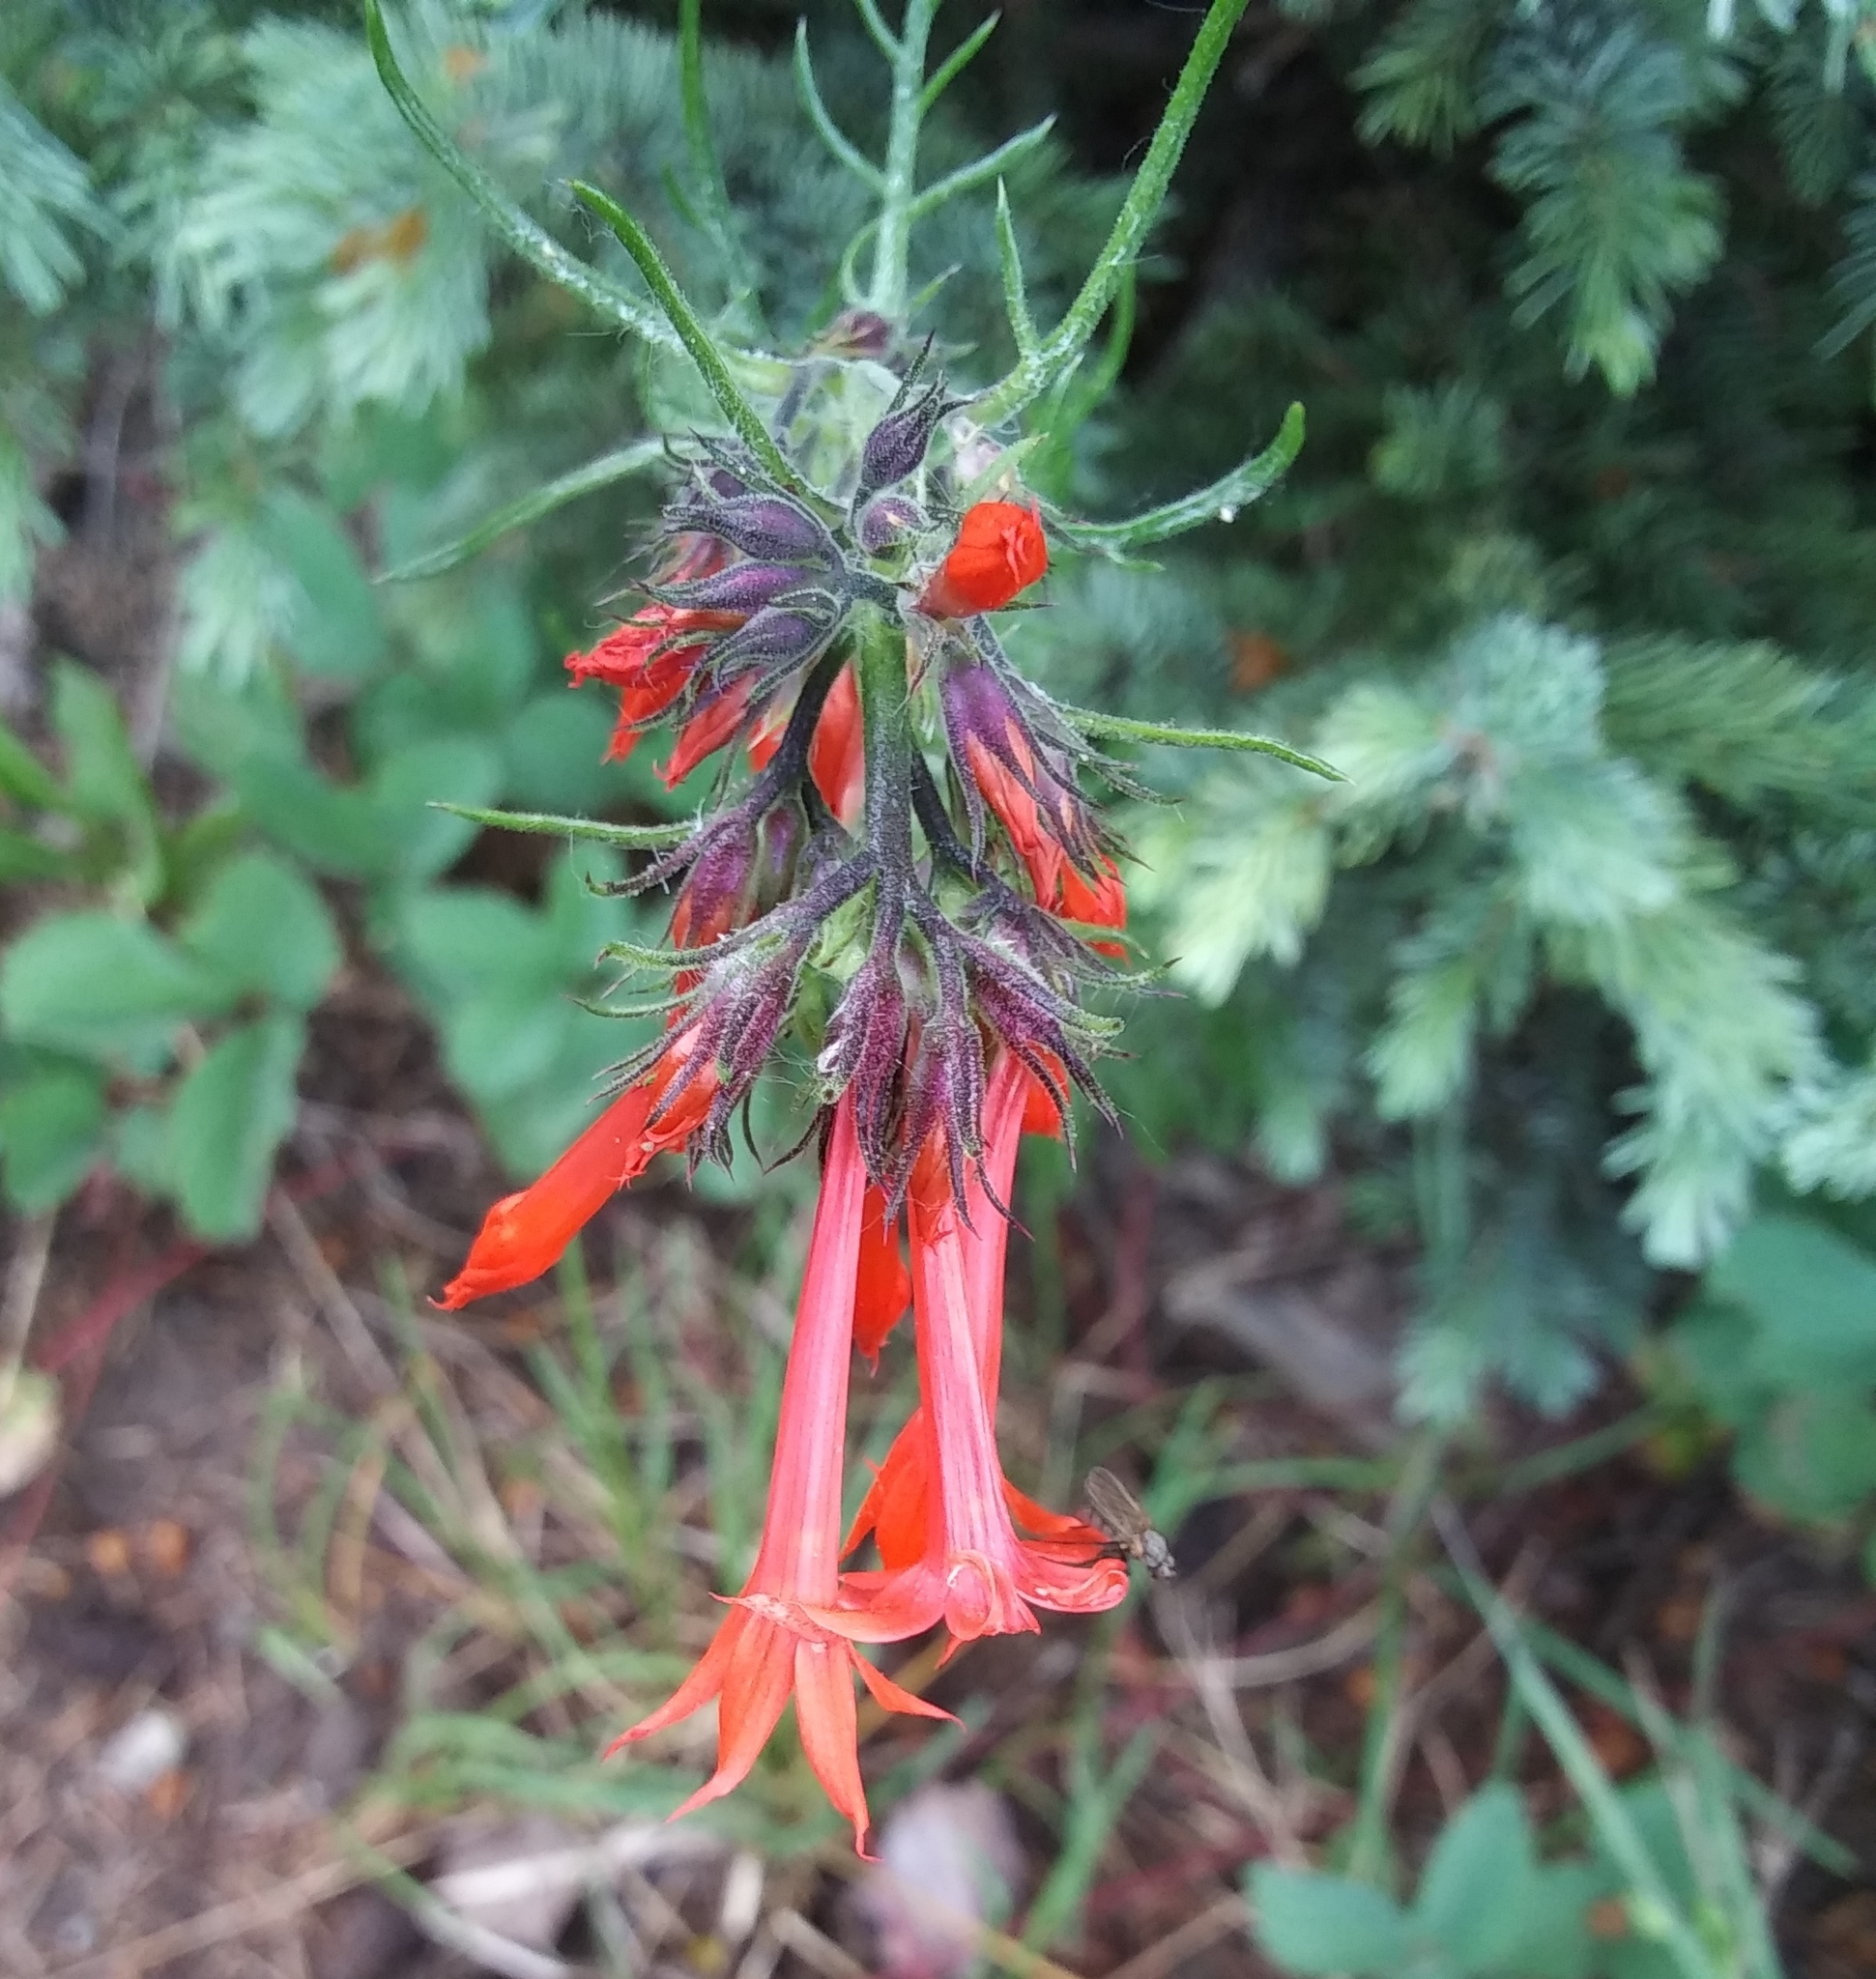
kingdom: Plantae
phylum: Tracheophyta
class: Magnoliopsida
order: Ericales
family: Polemoniaceae
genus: Ipomopsis
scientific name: Ipomopsis aggregata
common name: Scarlet gilia
